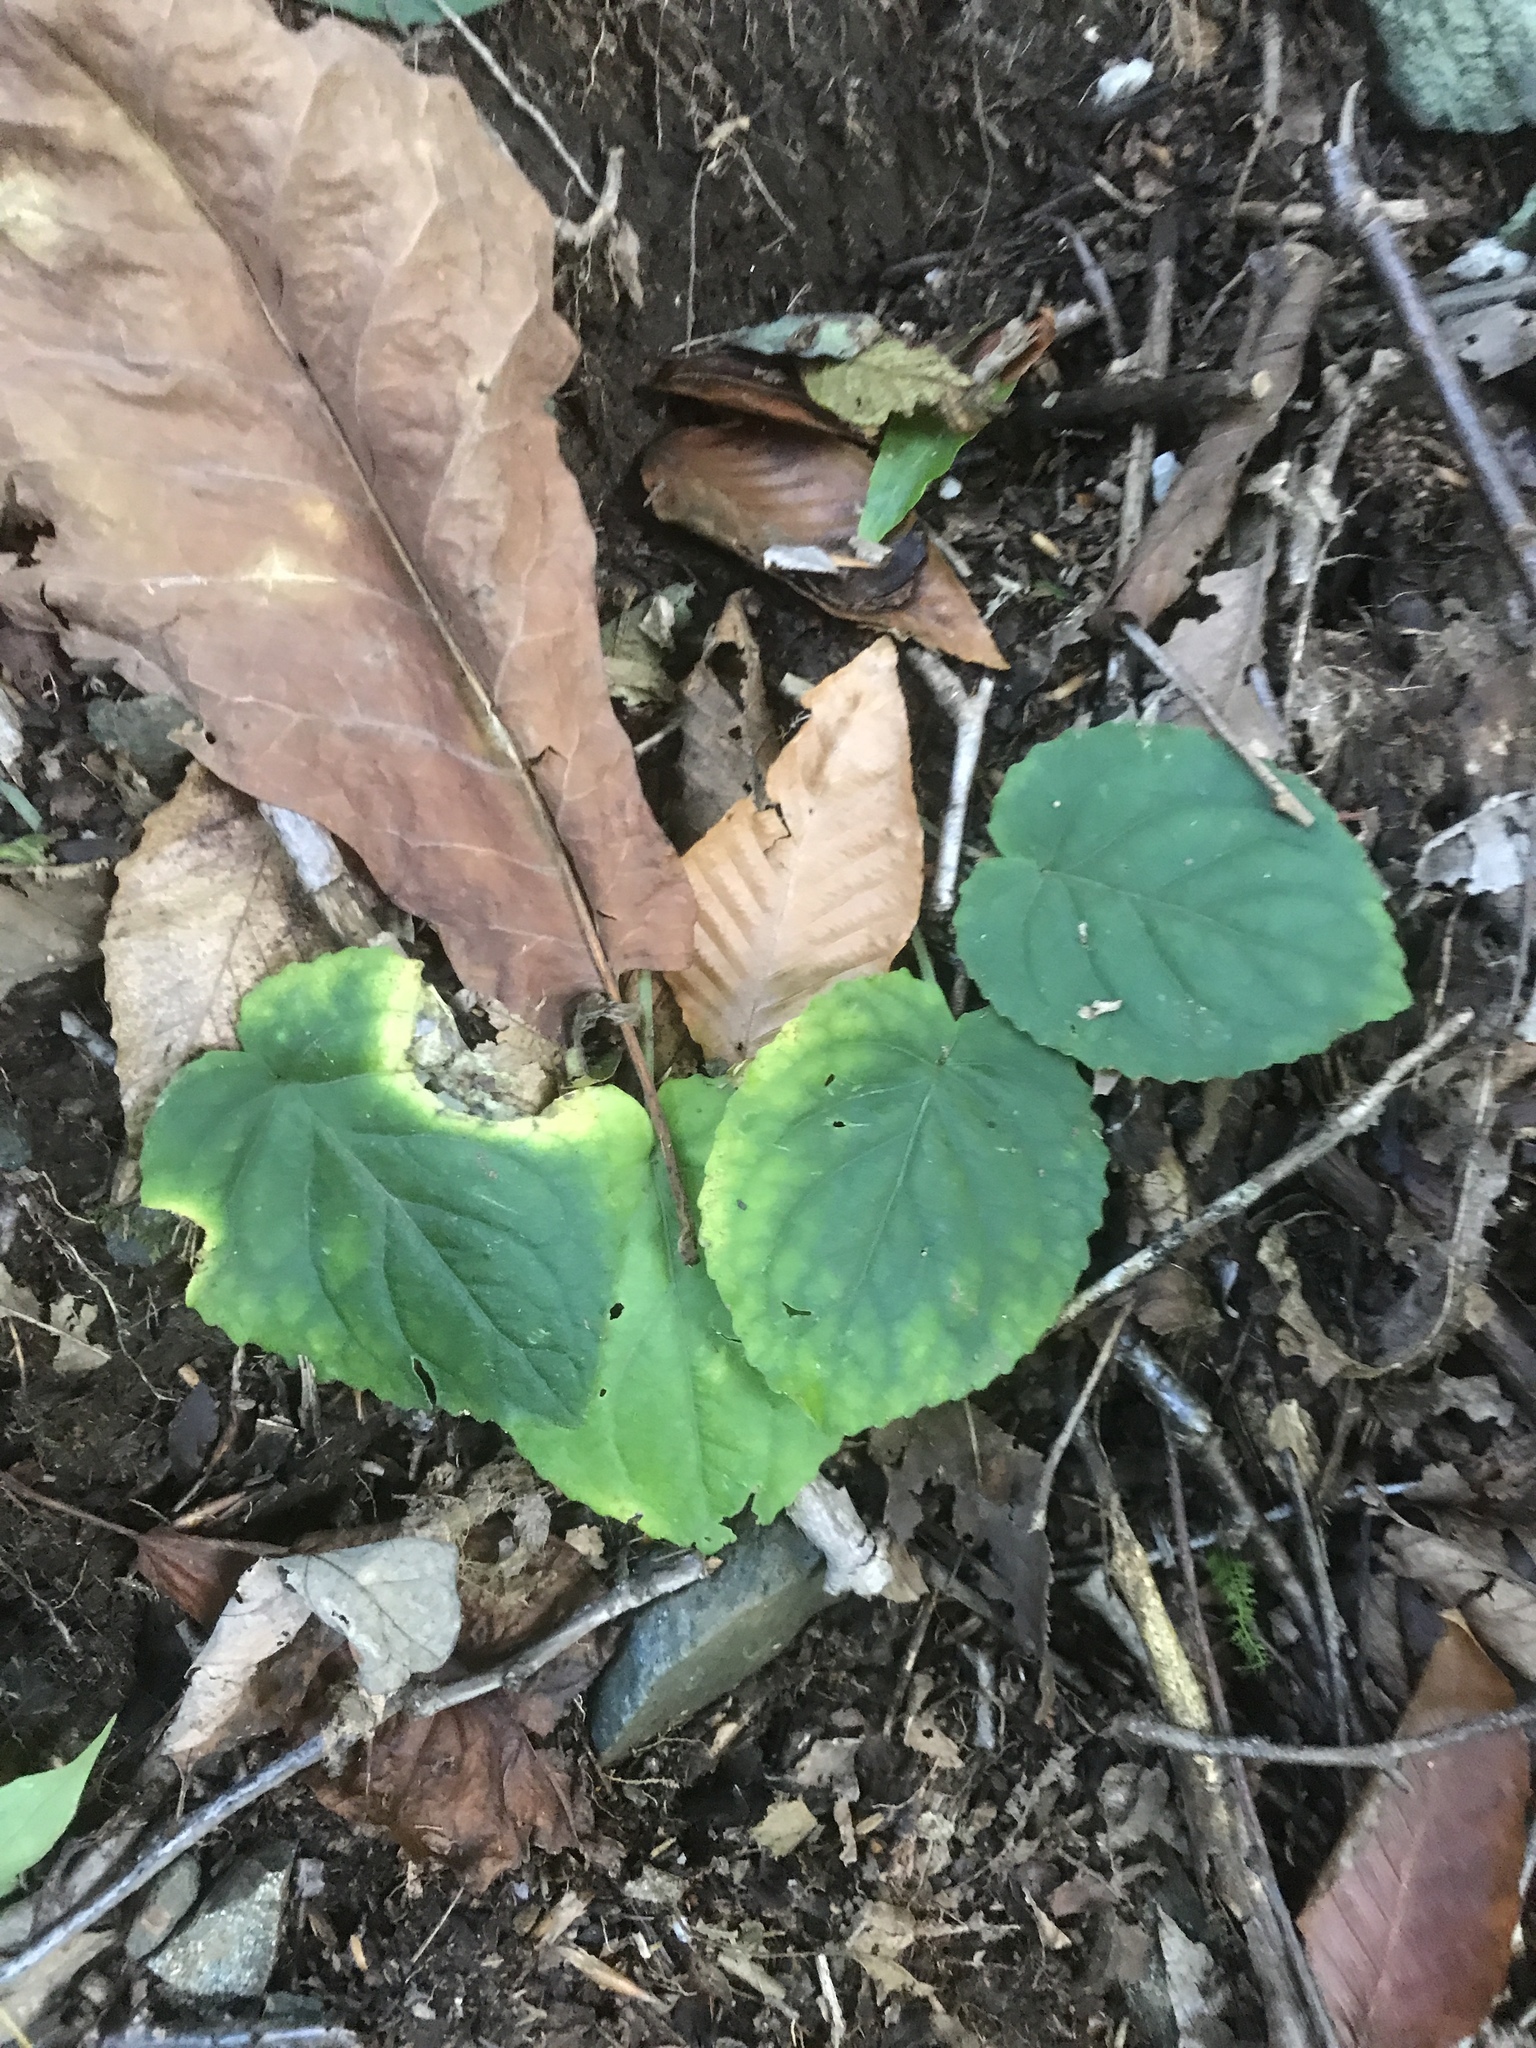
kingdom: Plantae
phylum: Tracheophyta
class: Magnoliopsida
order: Malpighiales
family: Violaceae
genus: Viola
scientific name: Viola rotundifolia
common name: Early yellow violet
